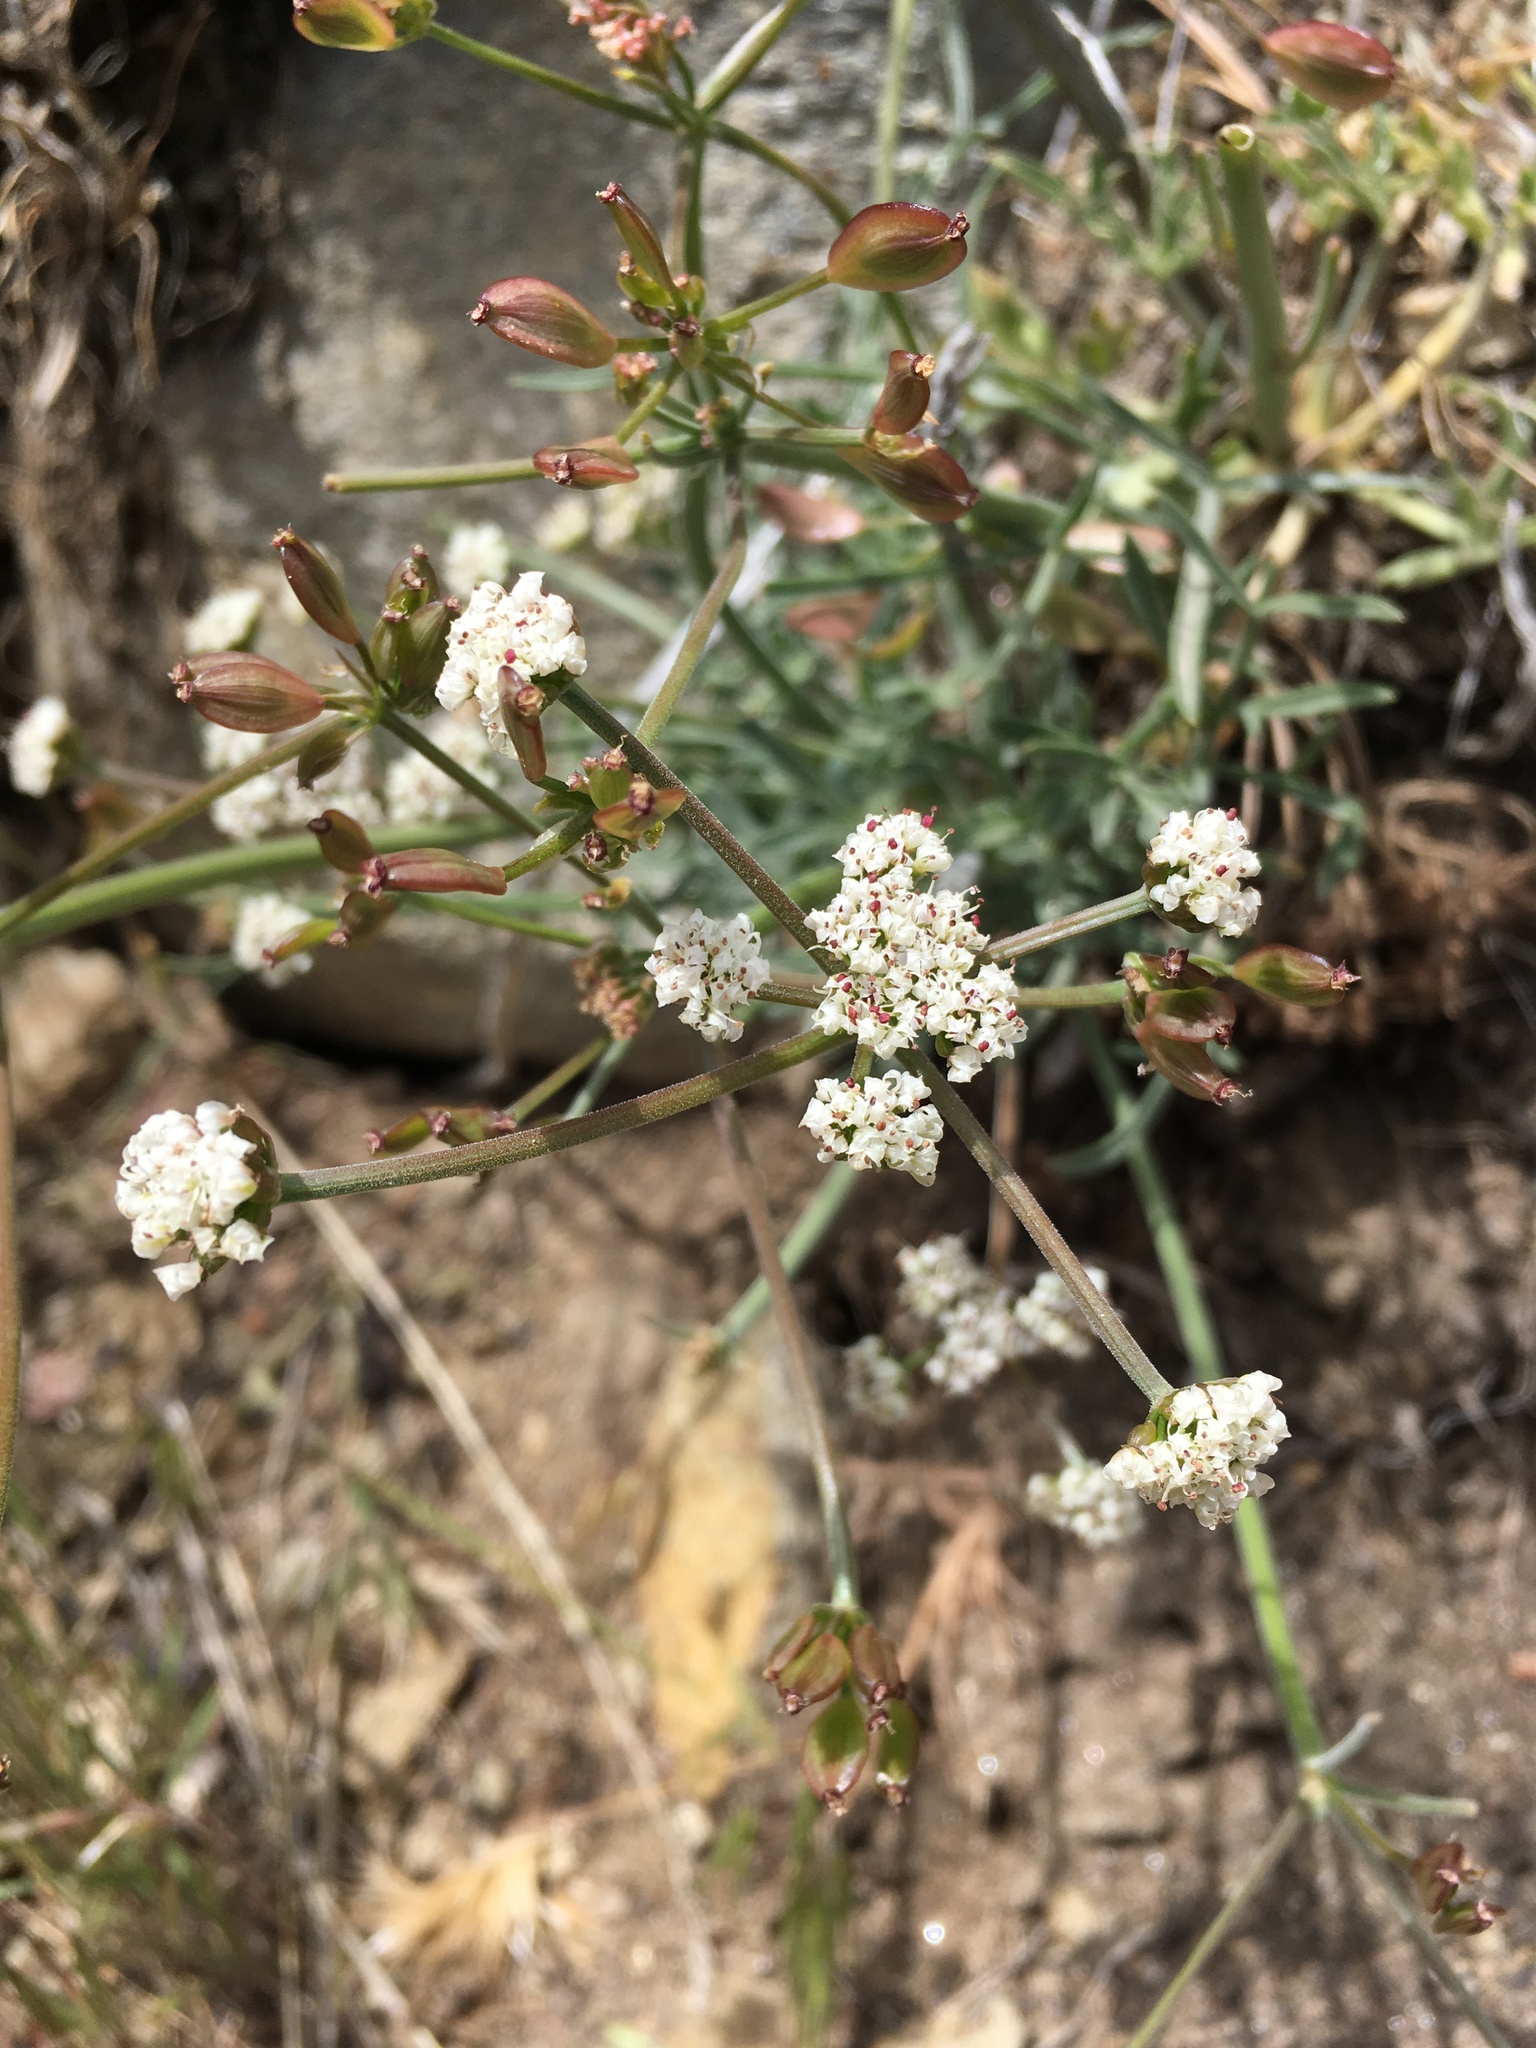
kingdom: Plantae
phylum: Tracheophyta
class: Magnoliopsida
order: Apiales
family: Apiaceae
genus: Lomatium
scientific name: Lomatium nevadense
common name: Nevada lomatium
